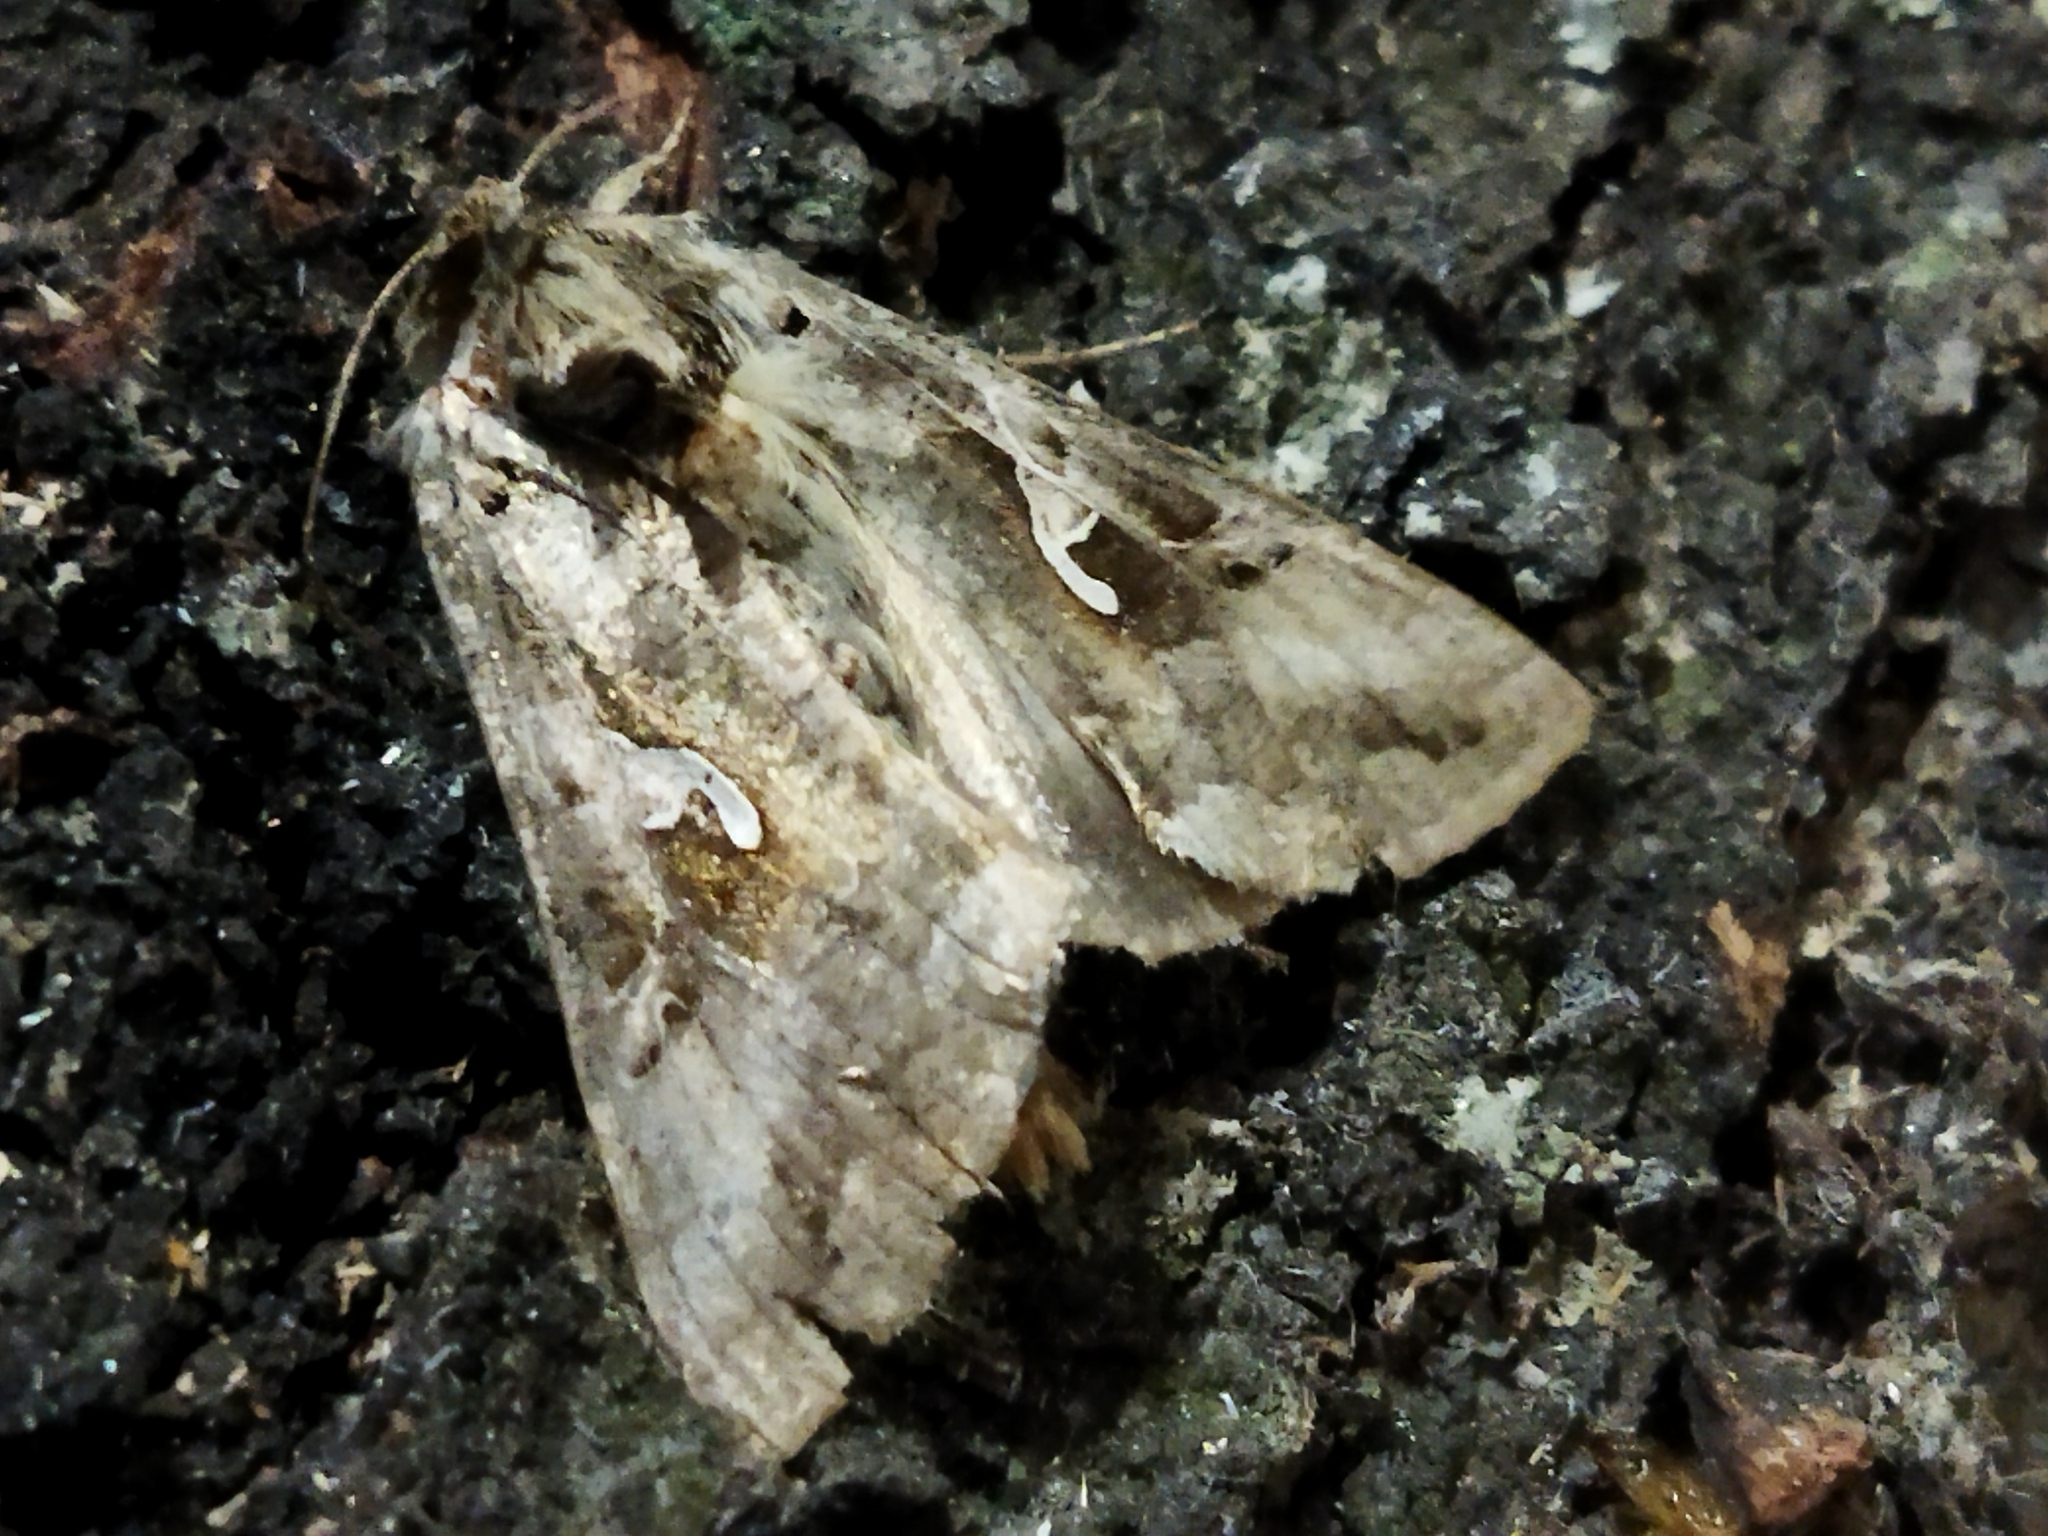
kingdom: Animalia
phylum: Arthropoda
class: Insecta
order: Lepidoptera
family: Noctuidae
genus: Autographa
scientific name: Autographa gamma
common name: Silver y
